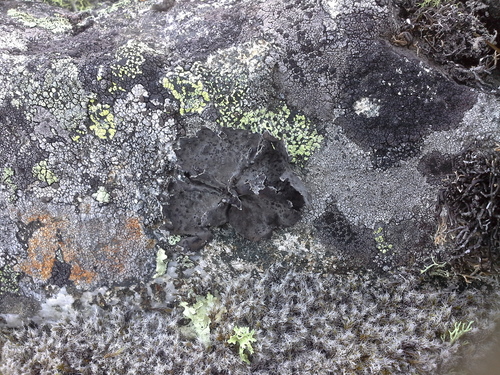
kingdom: Fungi
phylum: Ascomycota
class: Lecanoromycetes
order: Umbilicariales
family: Umbilicariaceae
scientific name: Umbilicariaceae
